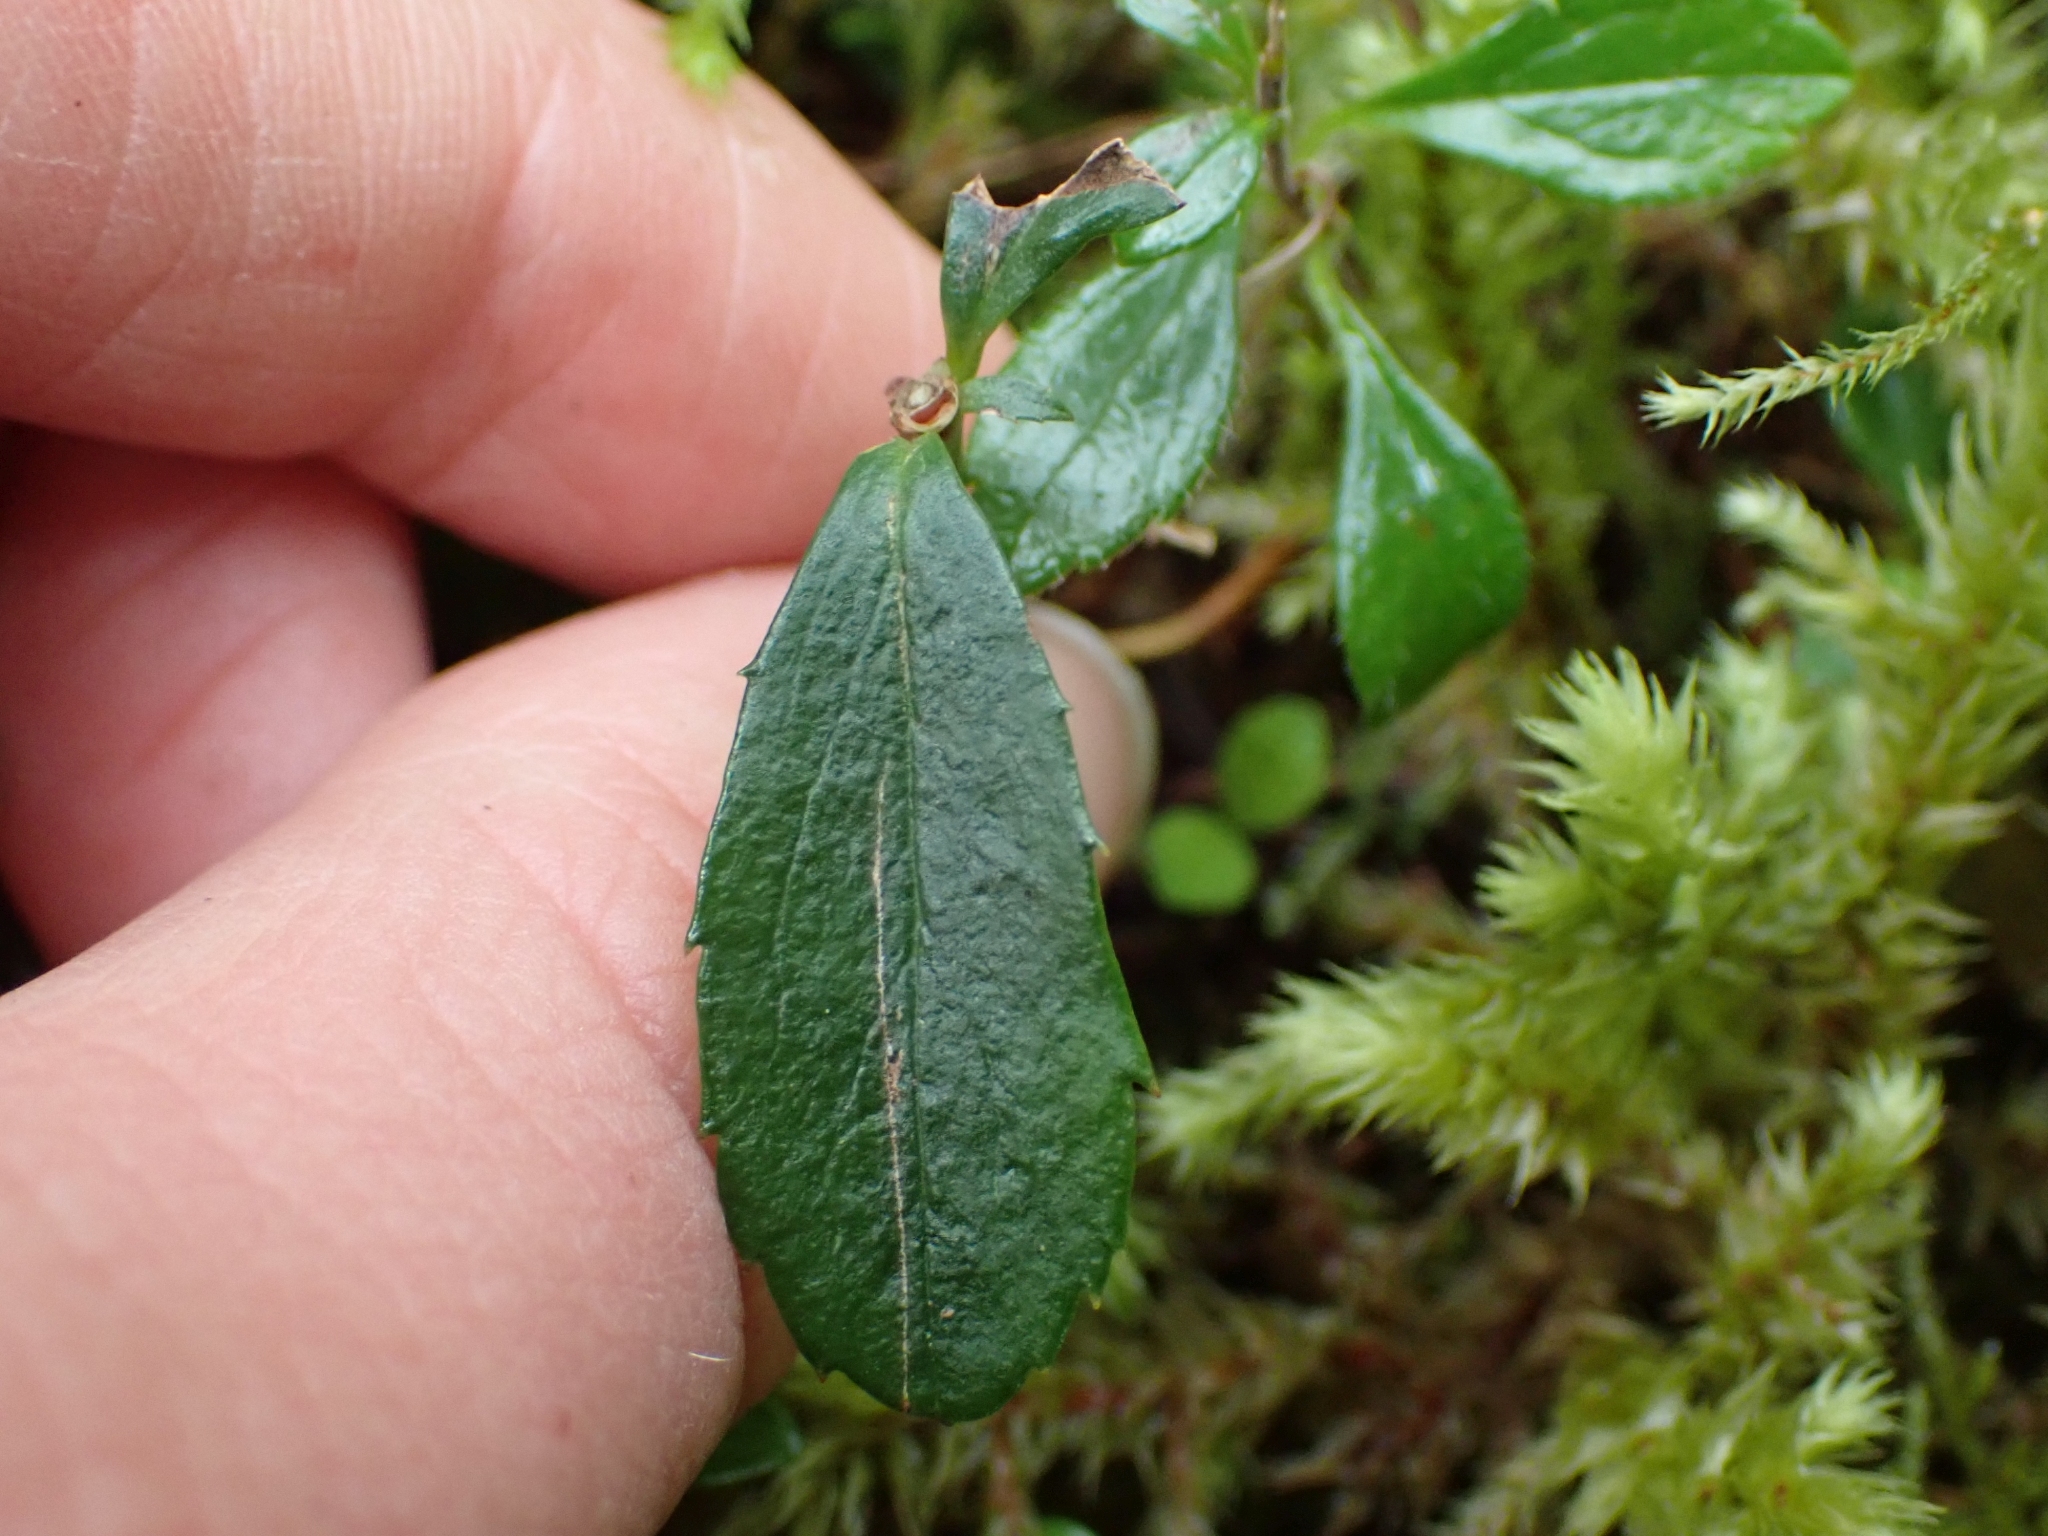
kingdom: Plantae
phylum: Tracheophyta
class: Magnoliopsida
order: Ericales
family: Ericaceae
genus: Chimaphila
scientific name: Chimaphila umbellata
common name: Pipsissewa
